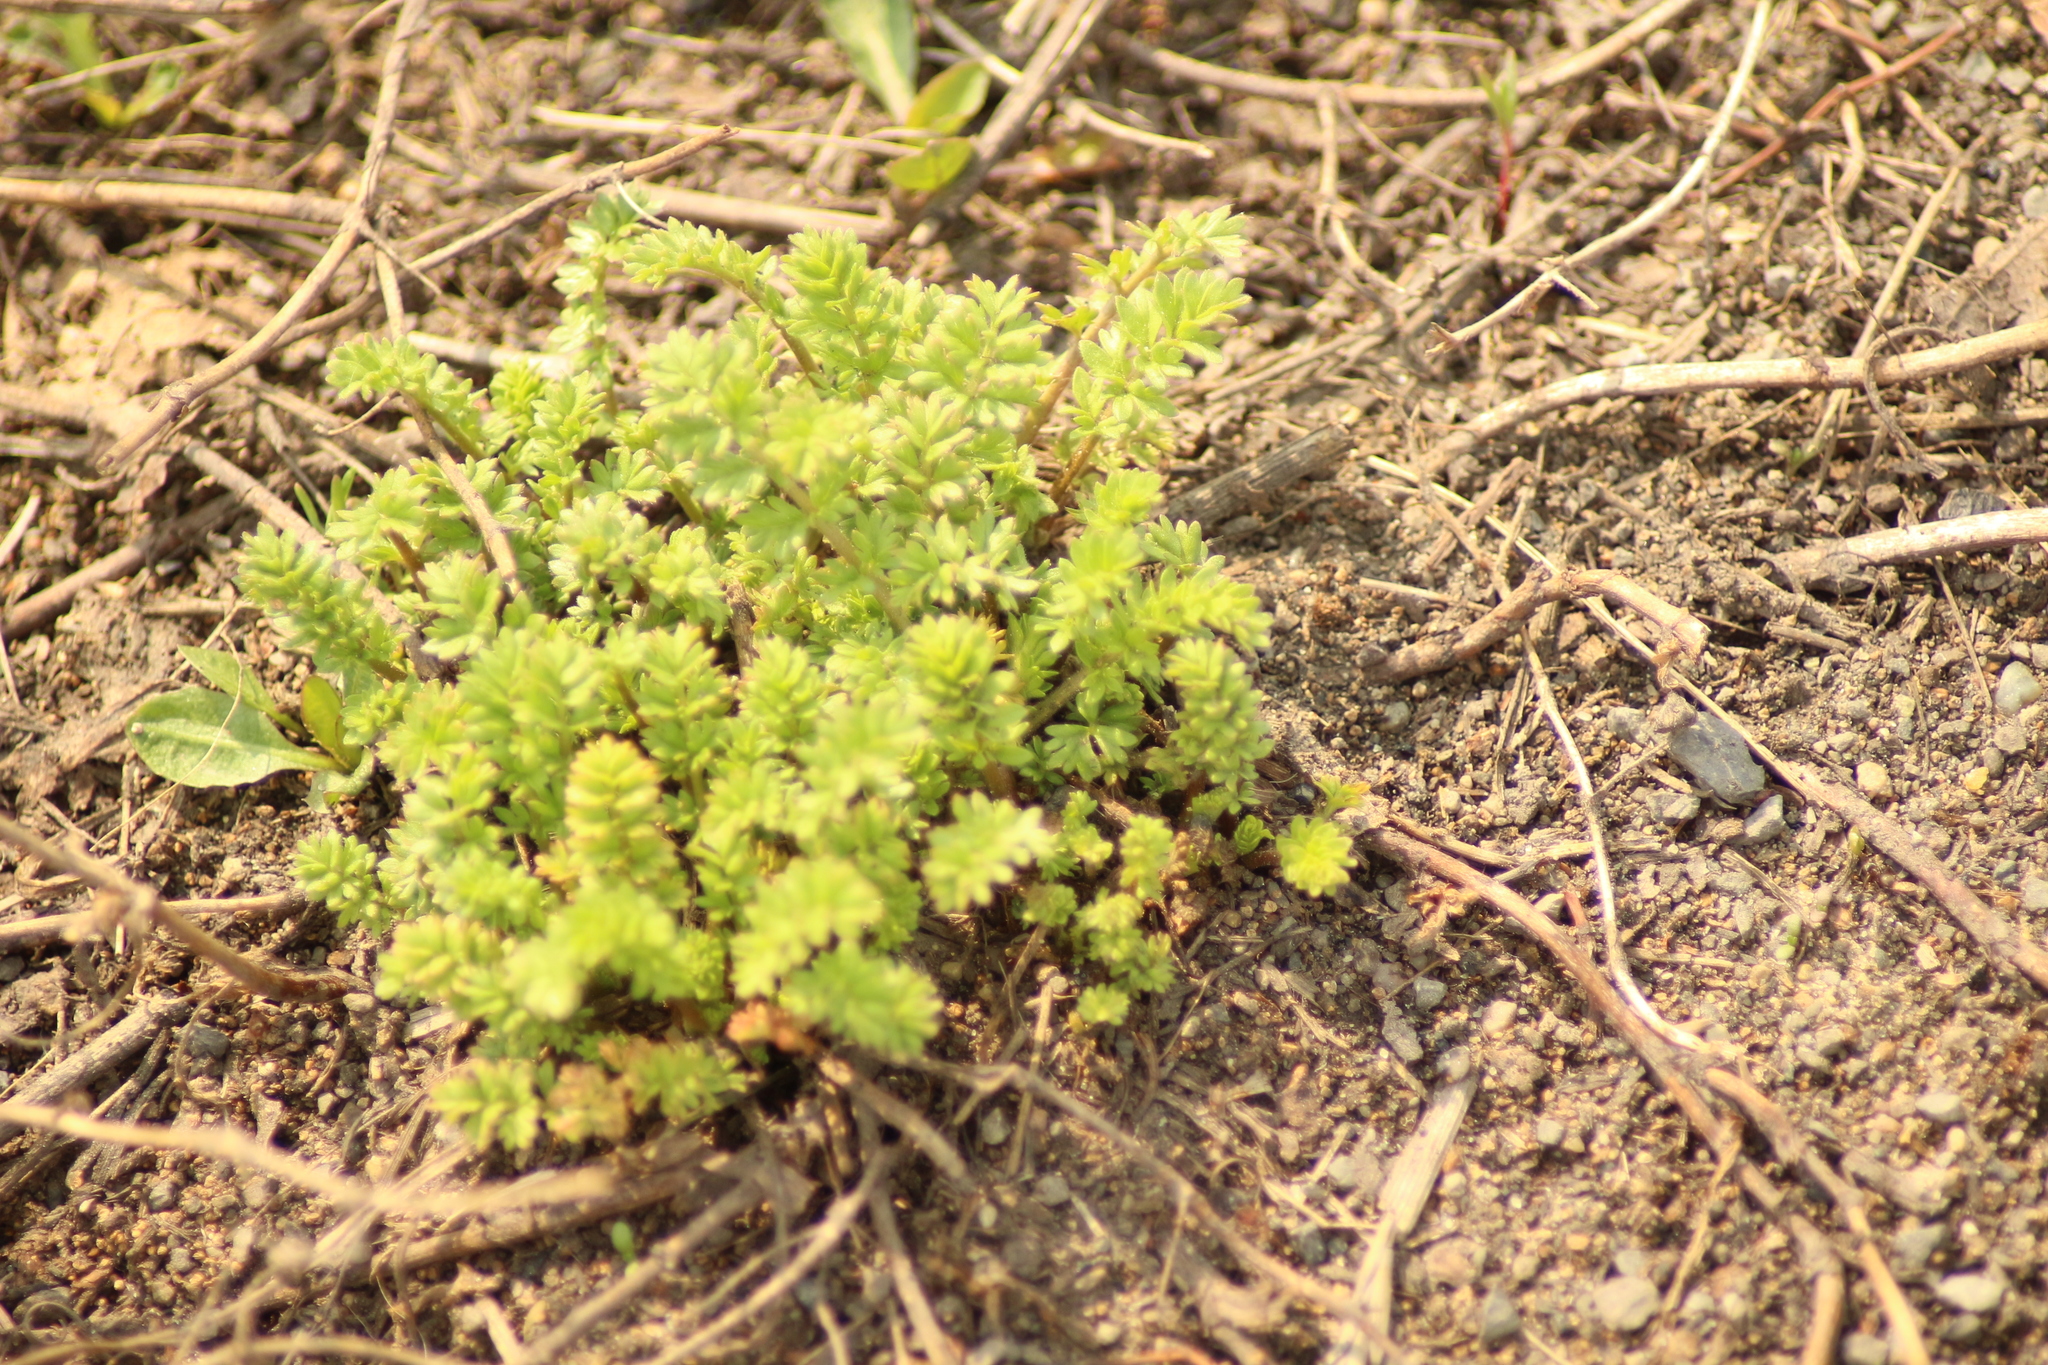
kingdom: Plantae
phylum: Tracheophyta
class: Magnoliopsida
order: Rosales
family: Rosaceae
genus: Potentilla
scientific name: Potentilla supina
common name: Prostrate cinquefoil
